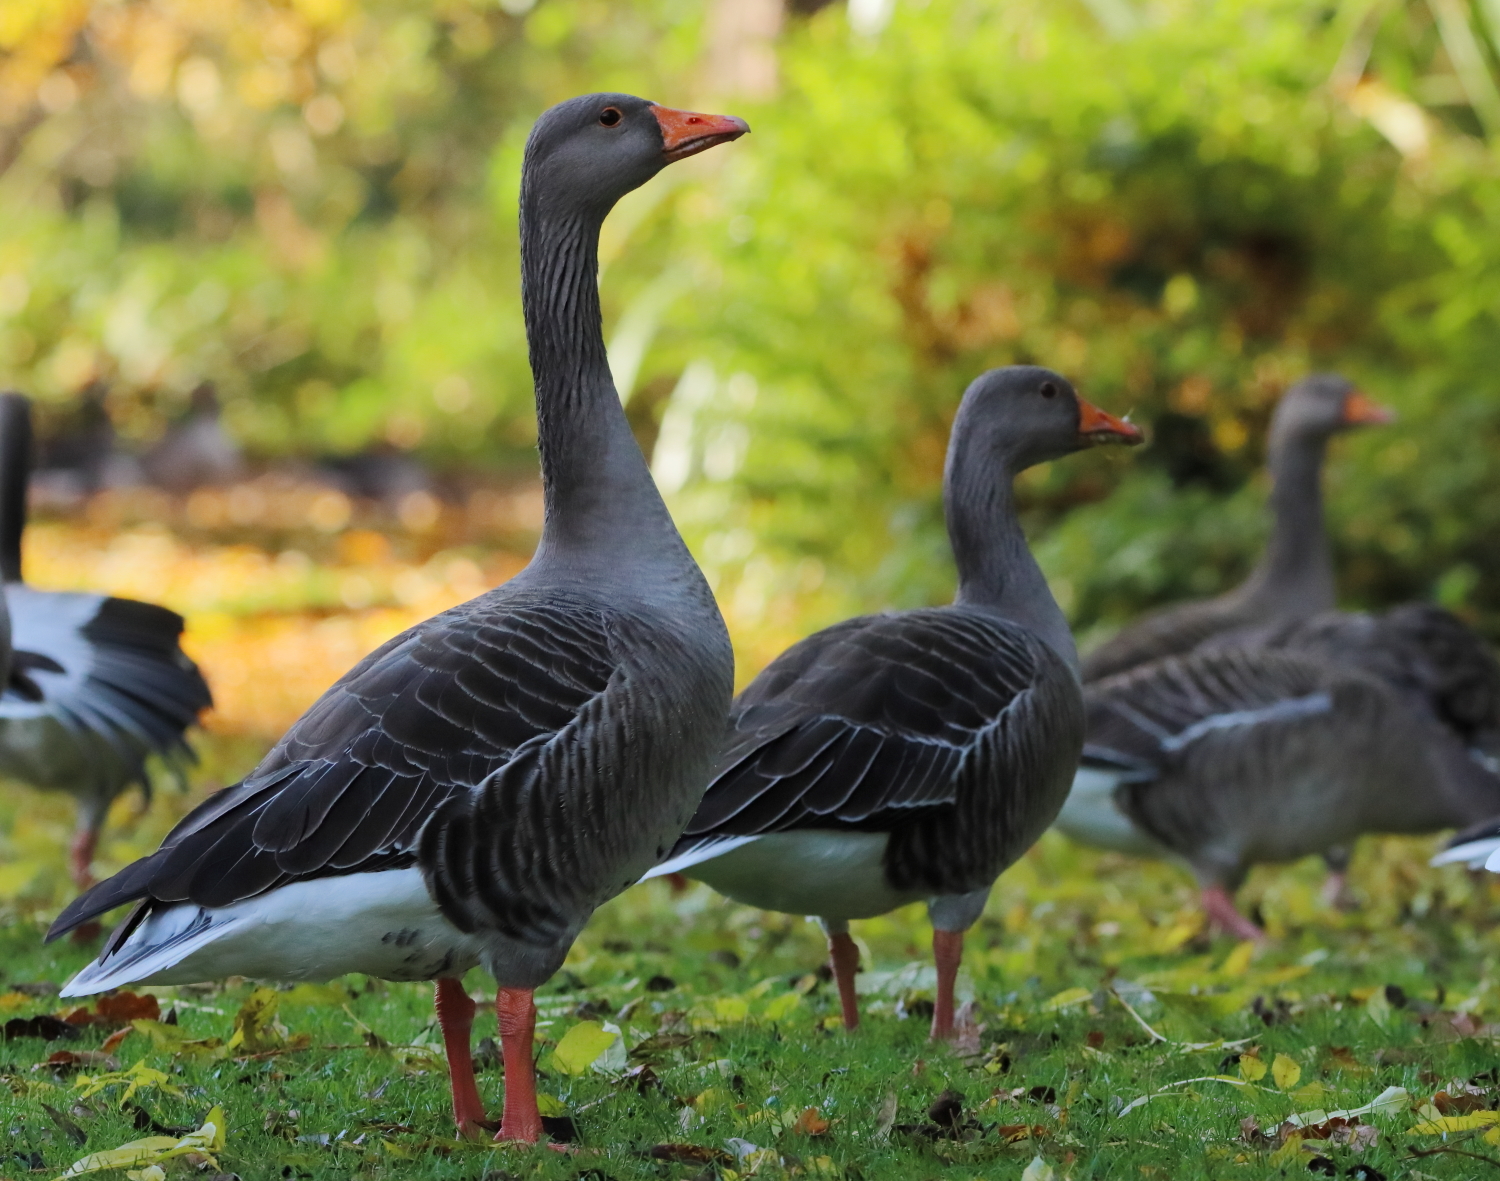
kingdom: Animalia
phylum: Chordata
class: Aves
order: Anseriformes
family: Anatidae
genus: Anser
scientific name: Anser anser
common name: Greylag goose
